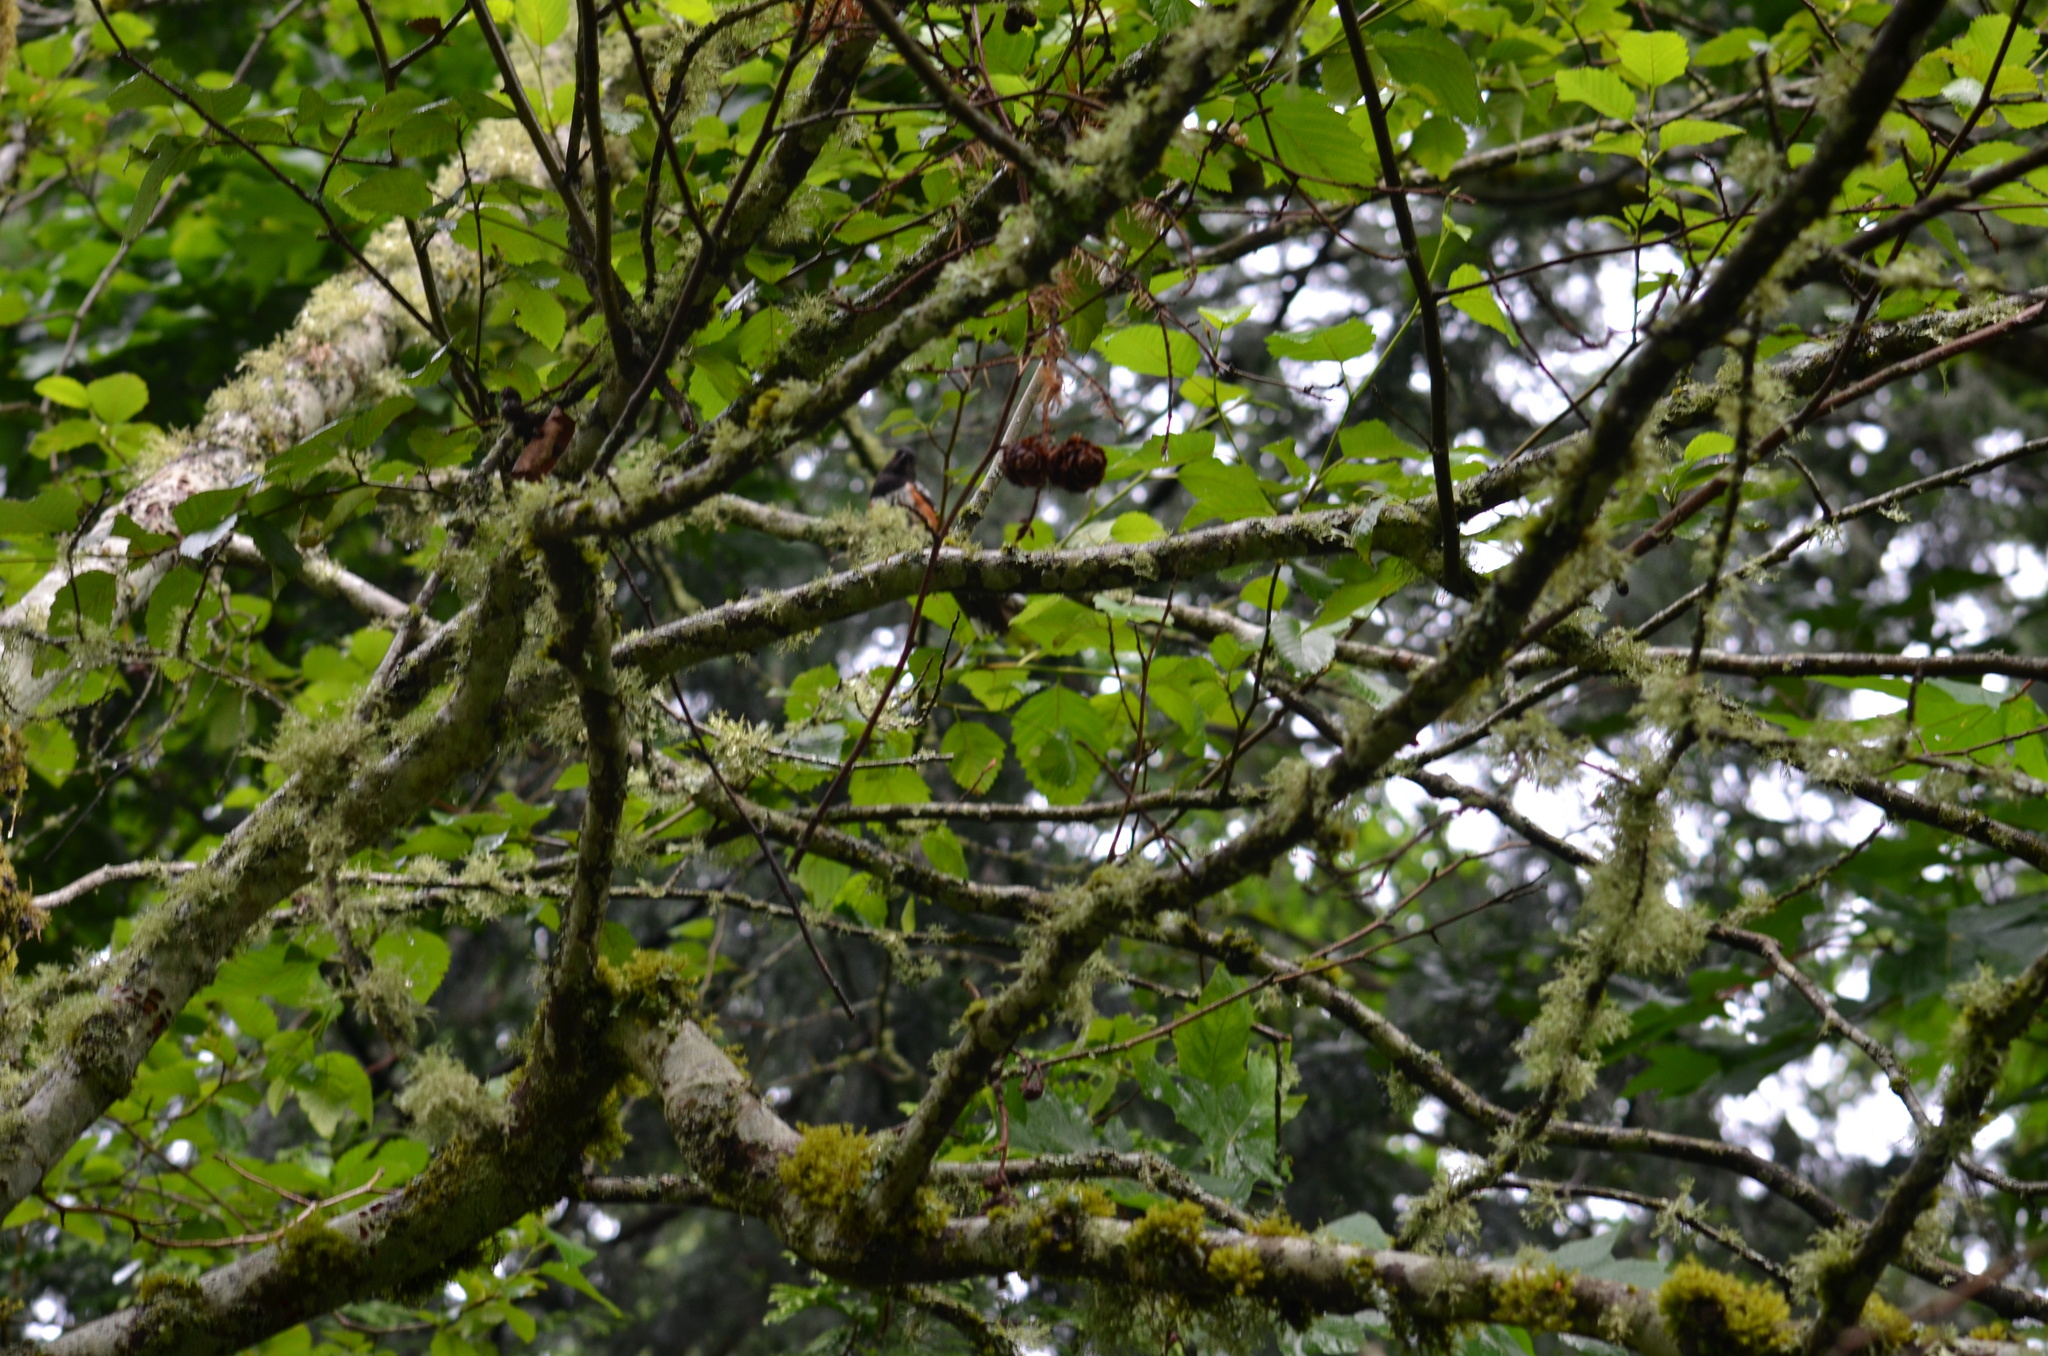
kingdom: Animalia
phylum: Chordata
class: Aves
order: Passeriformes
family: Passerellidae
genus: Pipilo
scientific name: Pipilo maculatus
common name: Spotted towhee
